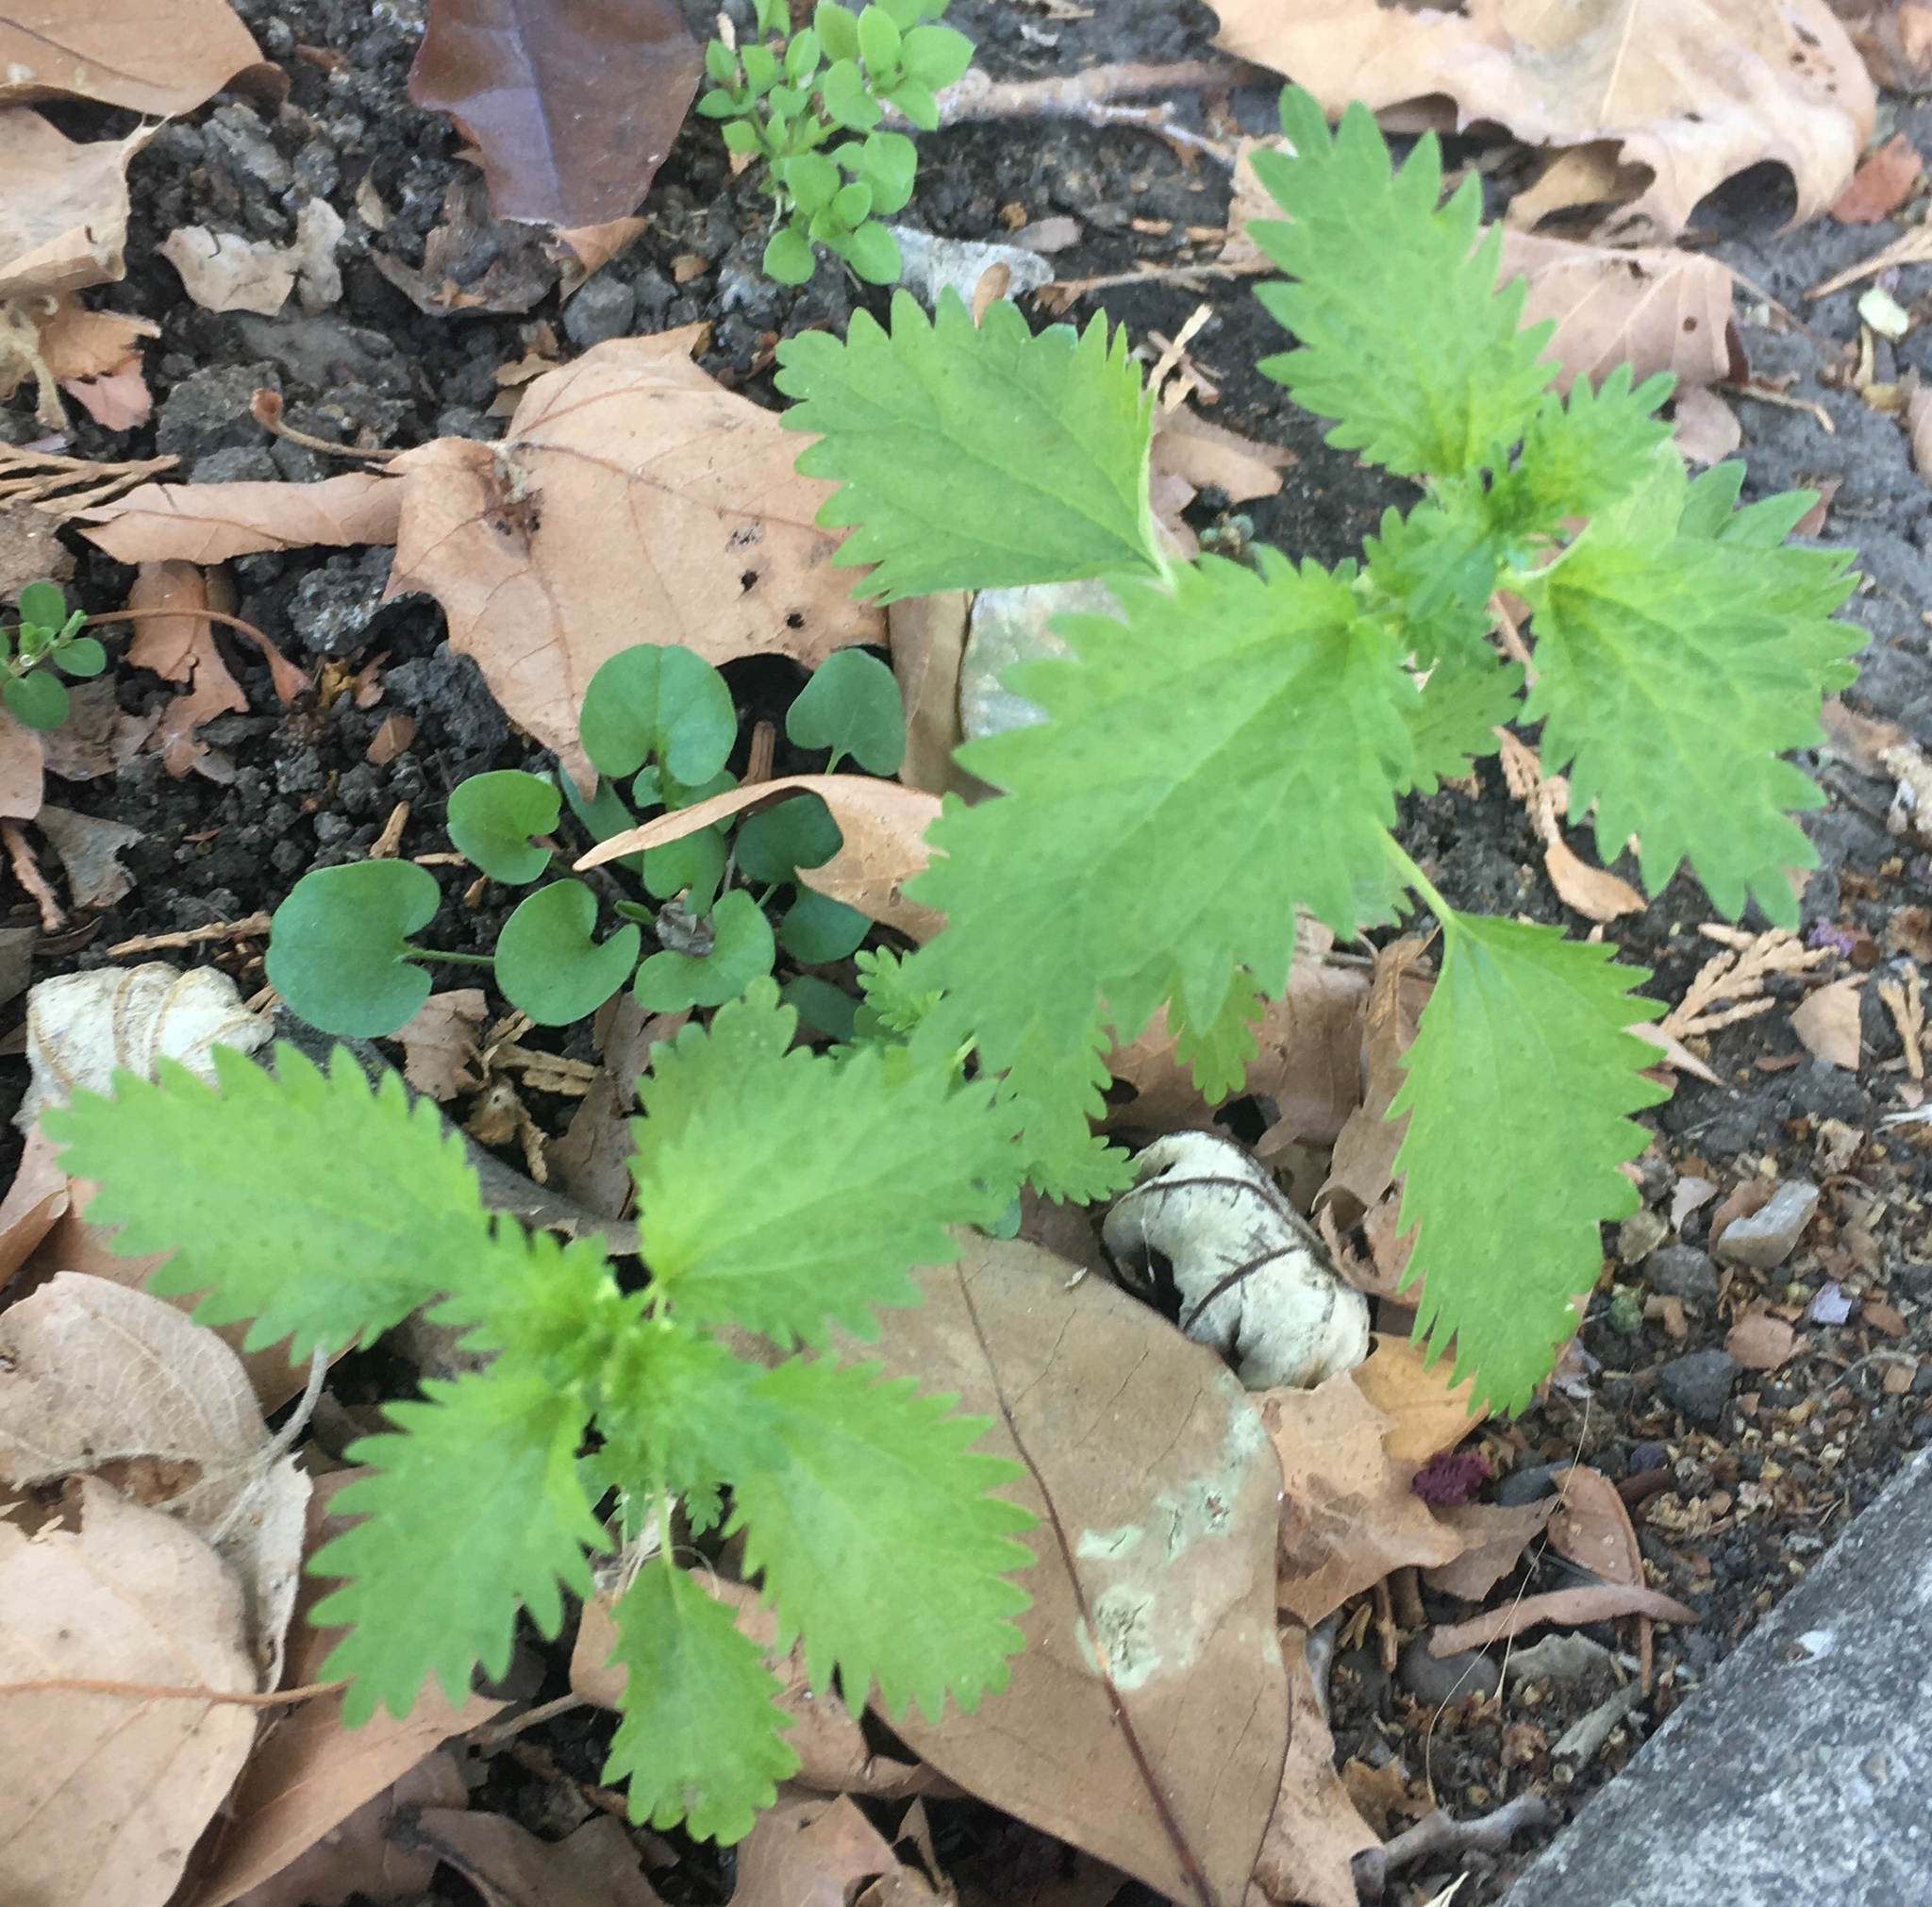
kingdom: Plantae
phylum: Tracheophyta
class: Magnoliopsida
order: Rosales
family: Urticaceae
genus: Urtica
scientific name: Urtica urens
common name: Dwarf nettle
